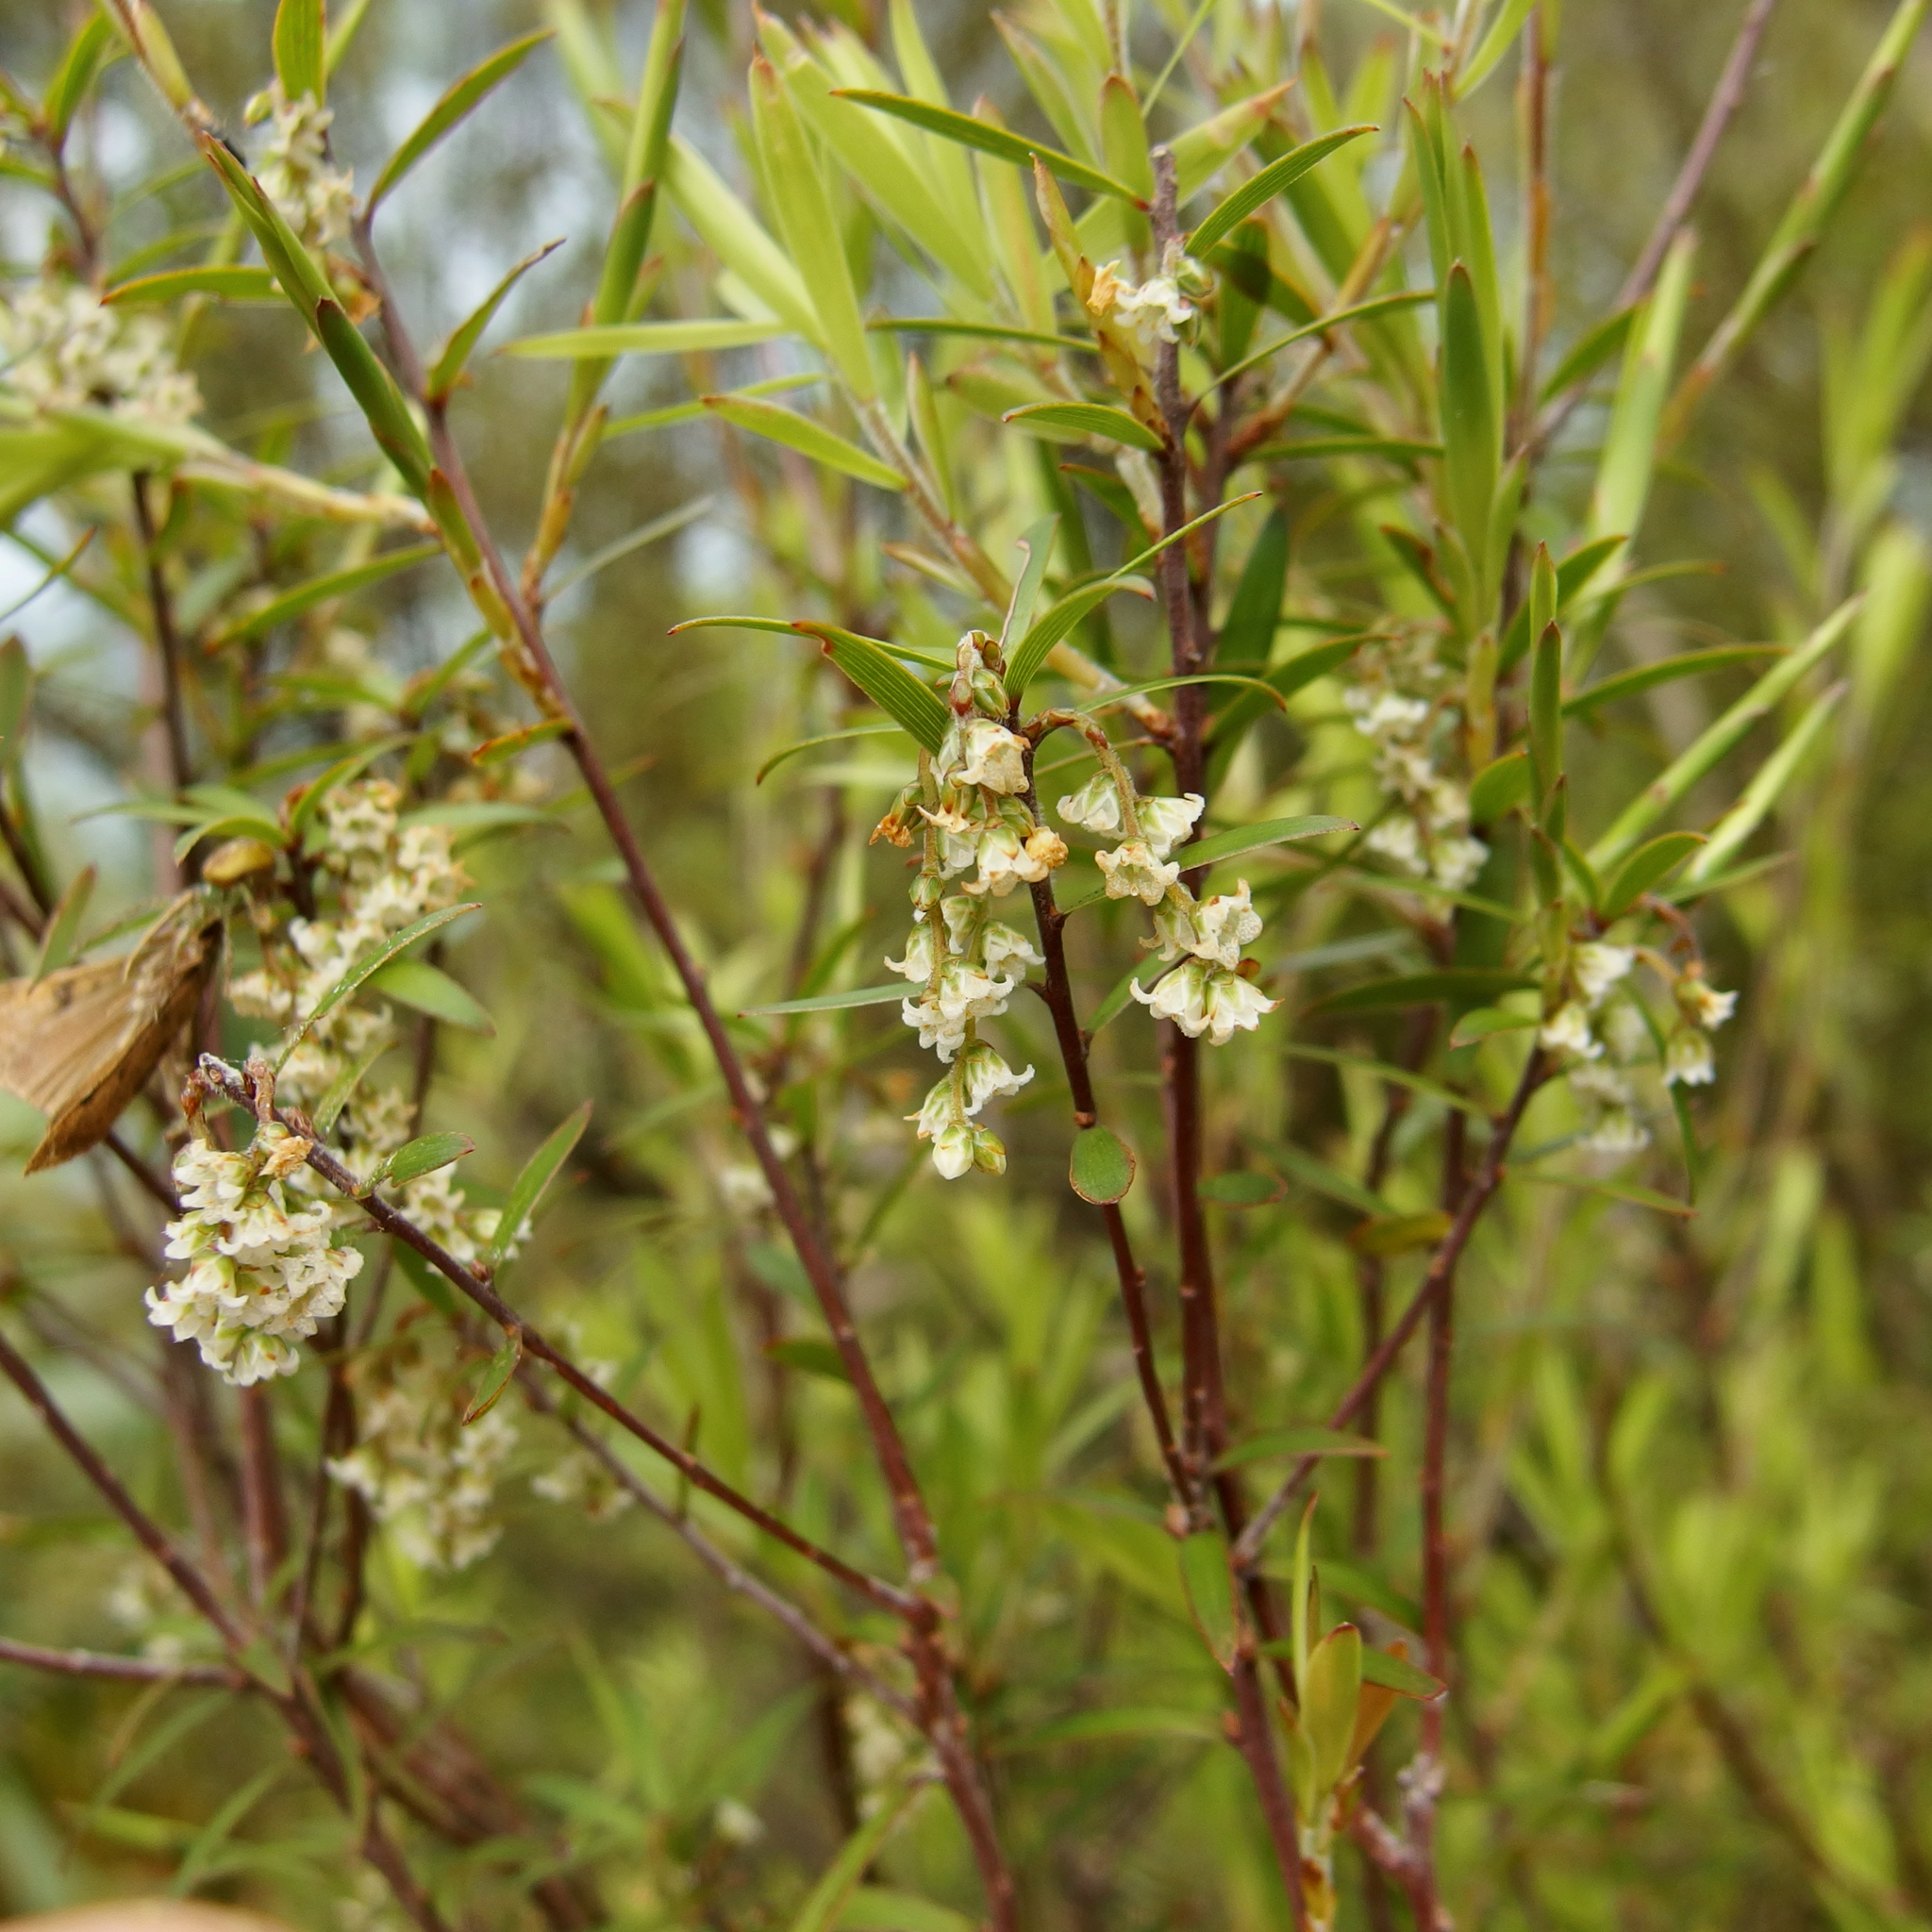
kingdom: Plantae
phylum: Tracheophyta
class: Magnoliopsida
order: Ericales
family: Ericaceae
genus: Archeria
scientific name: Archeria traversii
